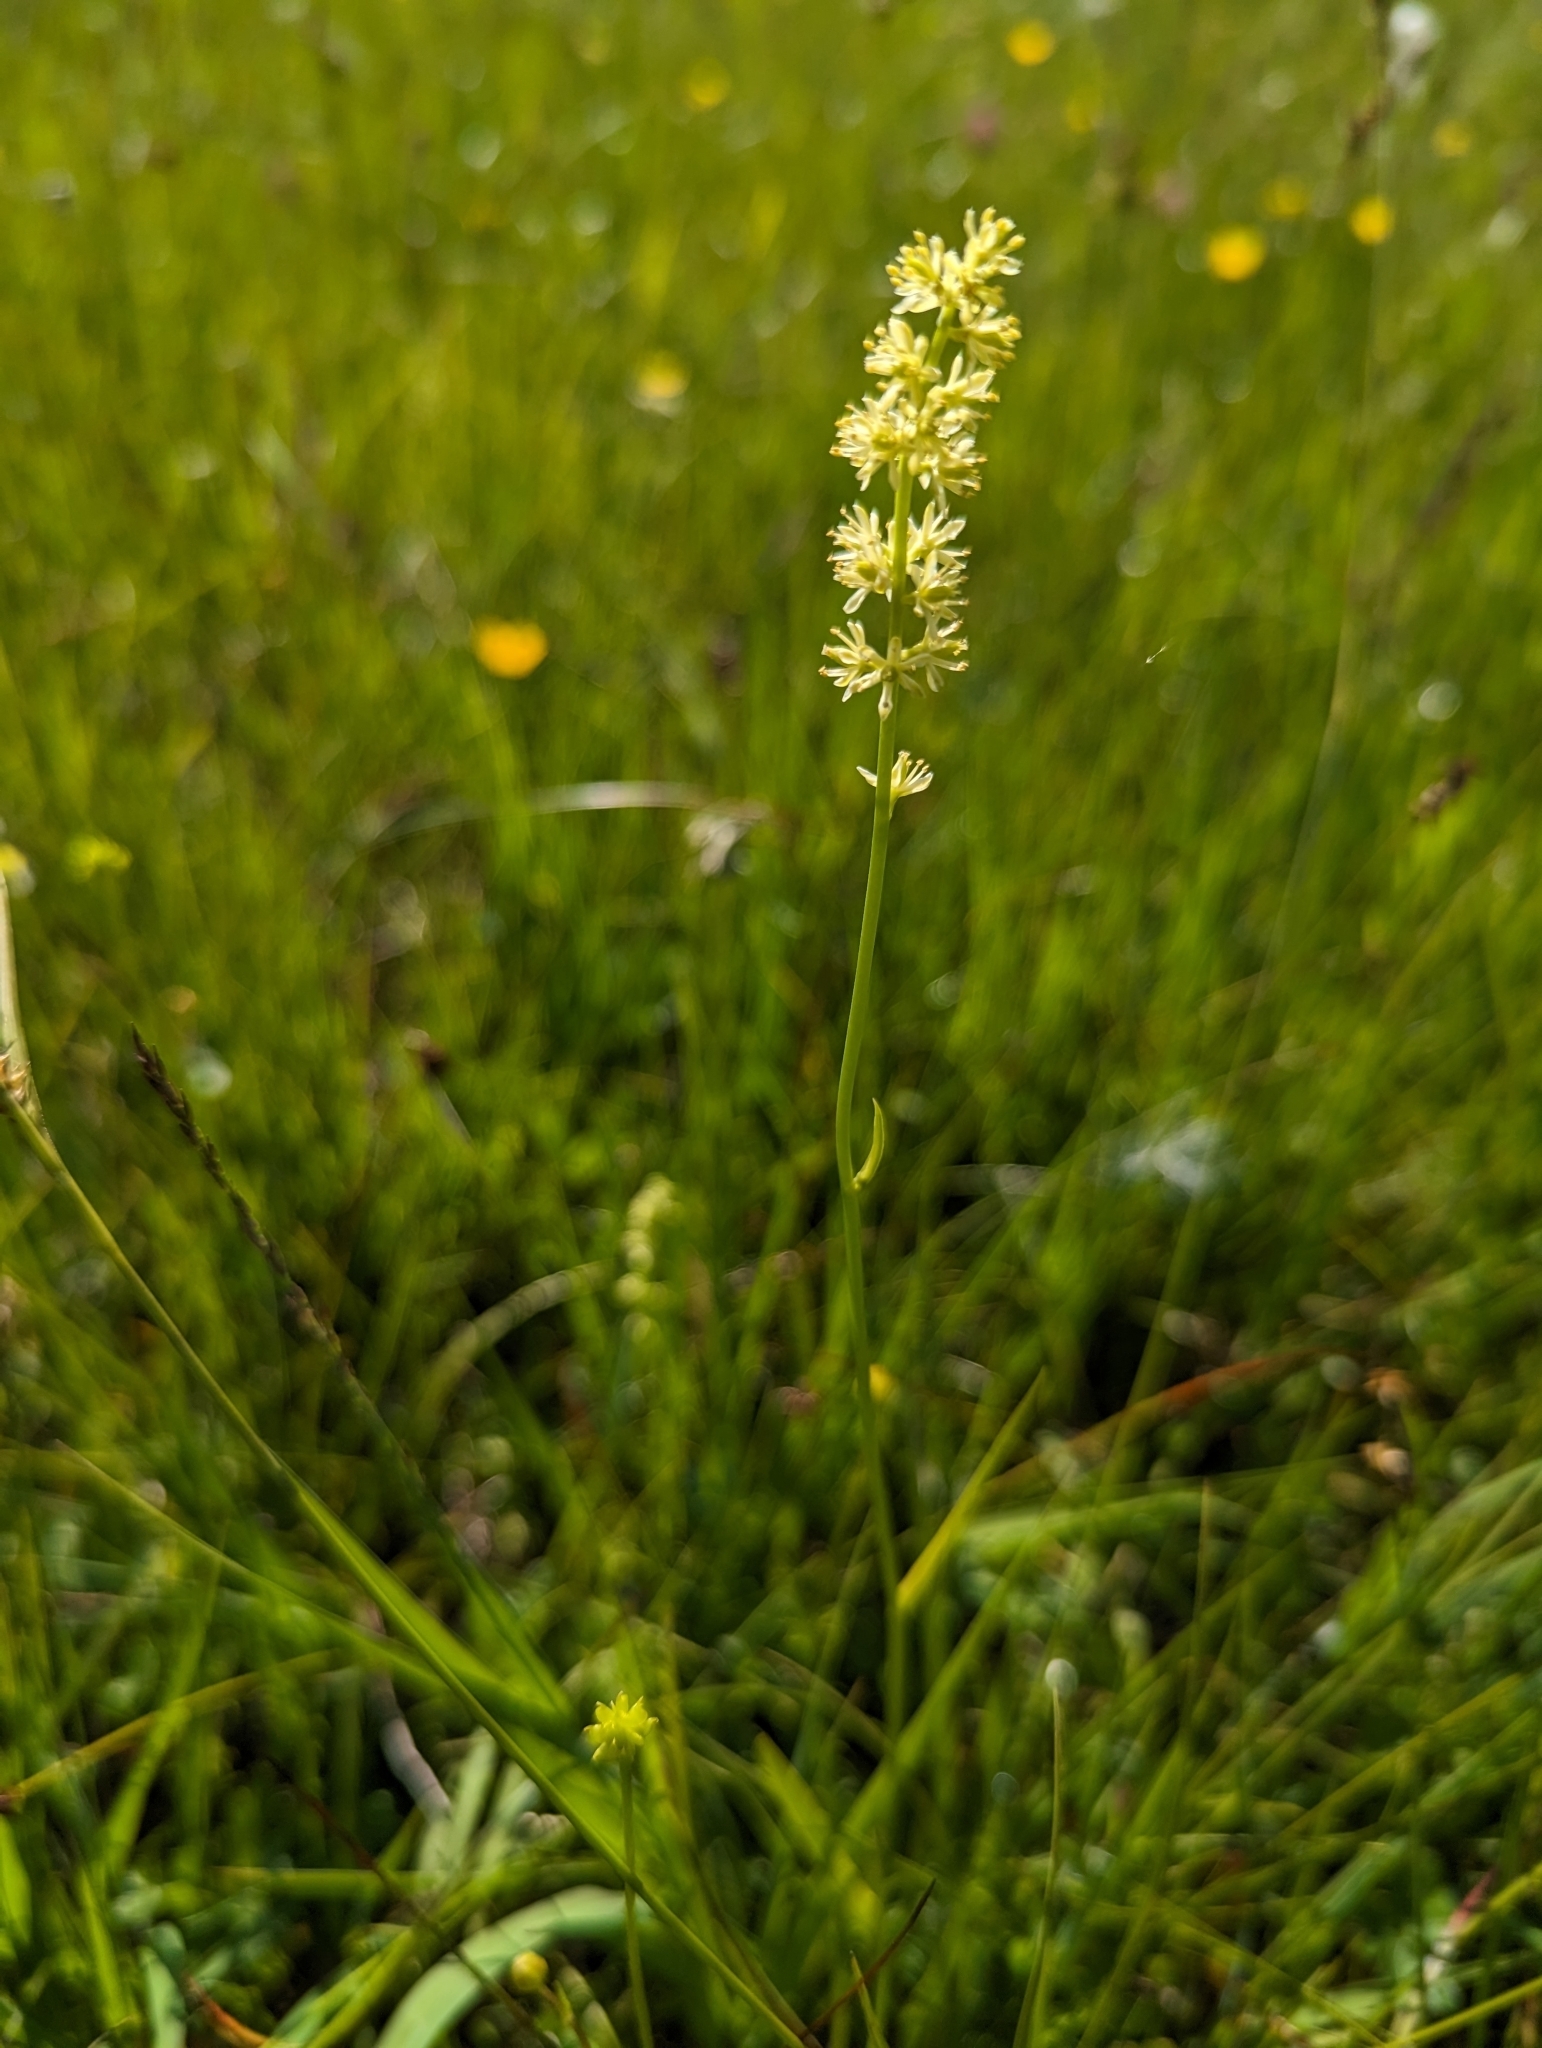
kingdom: Plantae
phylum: Tracheophyta
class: Liliopsida
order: Alismatales
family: Tofieldiaceae
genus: Tofieldia
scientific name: Tofieldia calyculata
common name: German-asphodel
